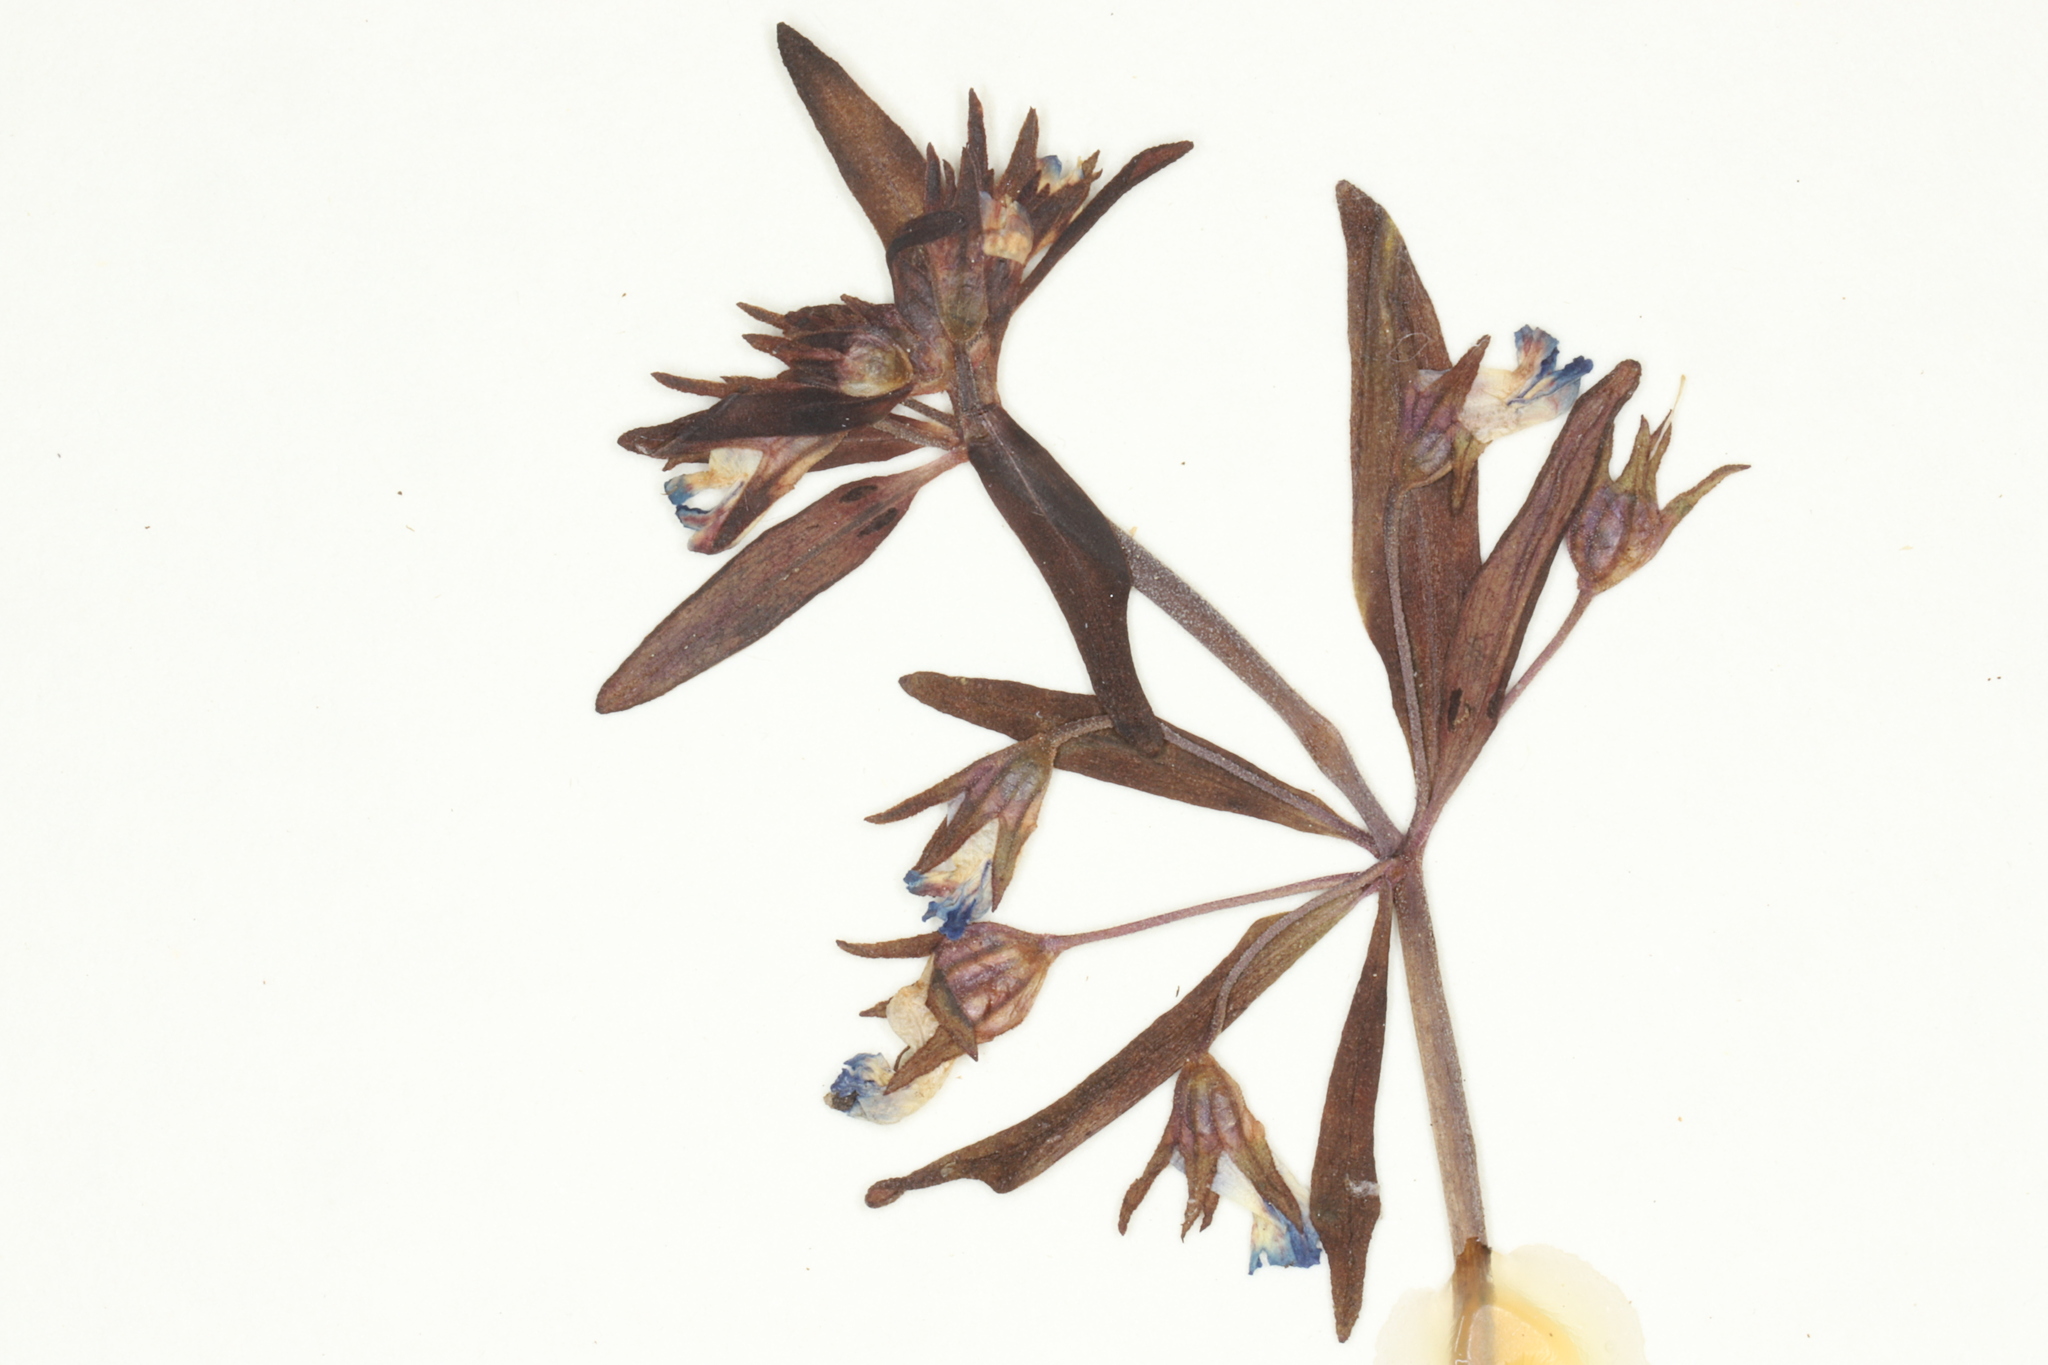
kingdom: Plantae
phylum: Tracheophyta
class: Magnoliopsida
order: Lamiales
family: Plantaginaceae
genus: Collinsia
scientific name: Collinsia parviflora
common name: Blue-lips
